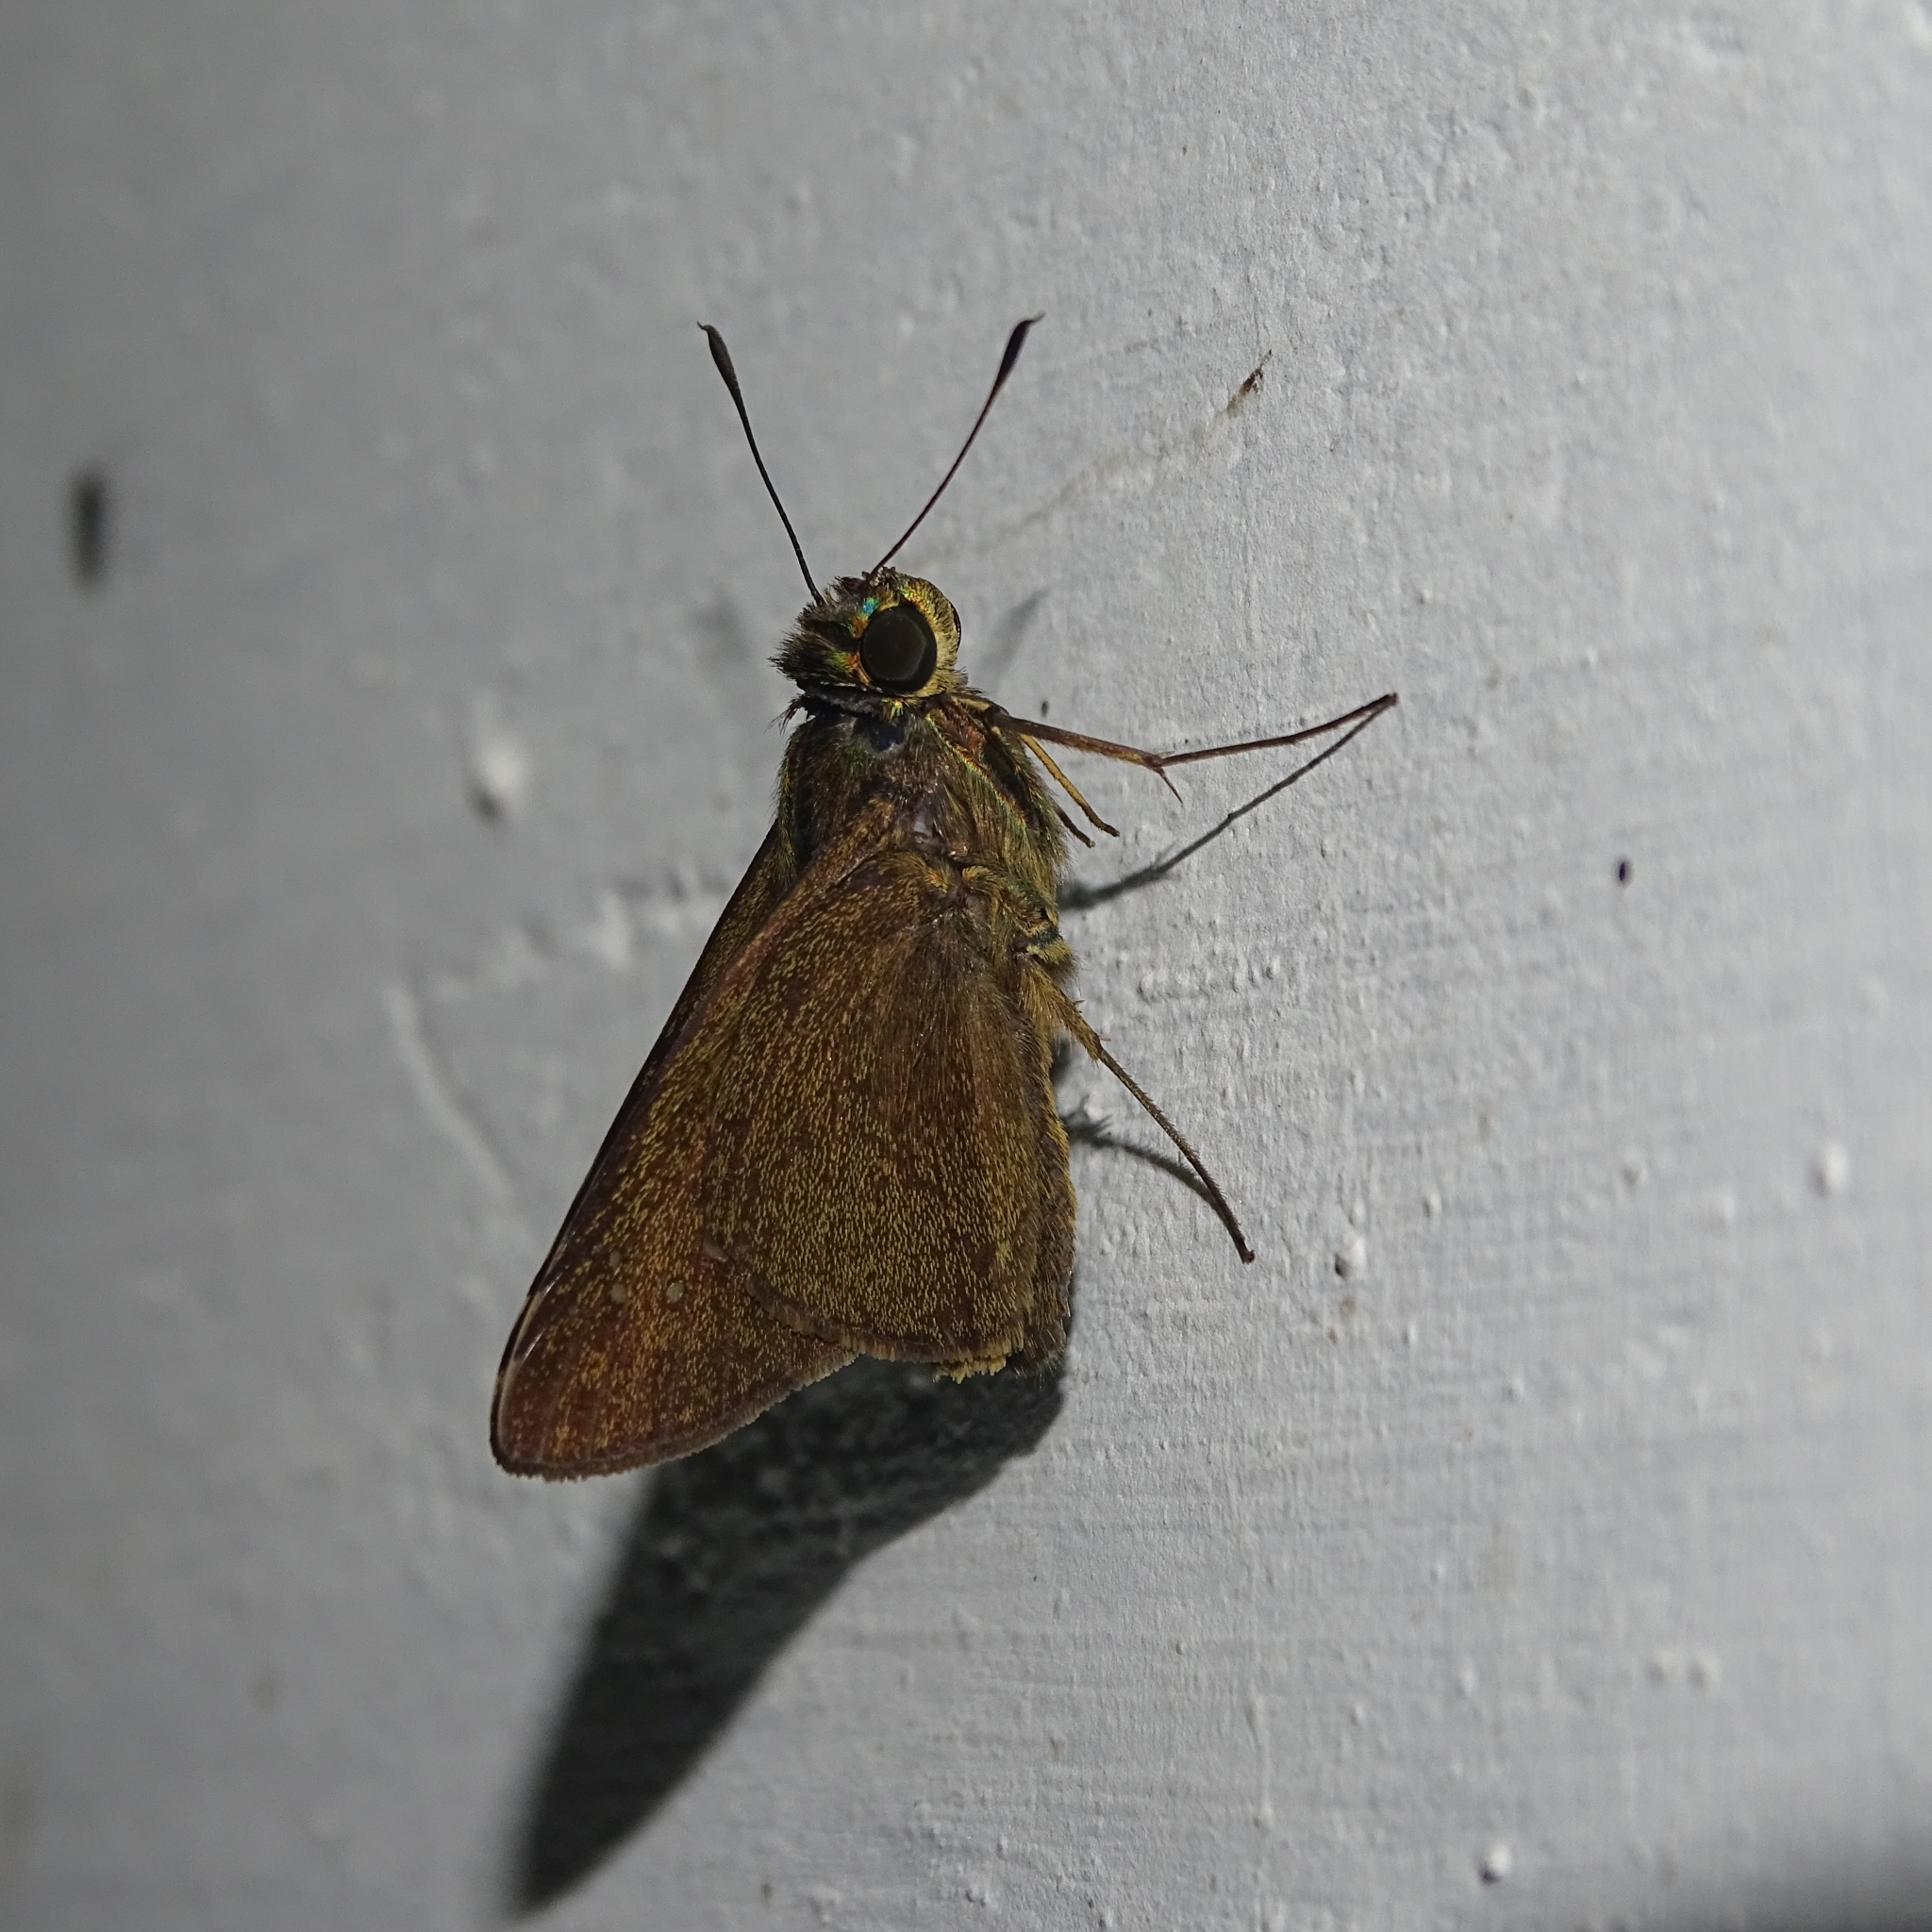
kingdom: Animalia
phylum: Arthropoda
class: Insecta
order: Lepidoptera
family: Hesperiidae
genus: Caltoris
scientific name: Caltoris kumara
